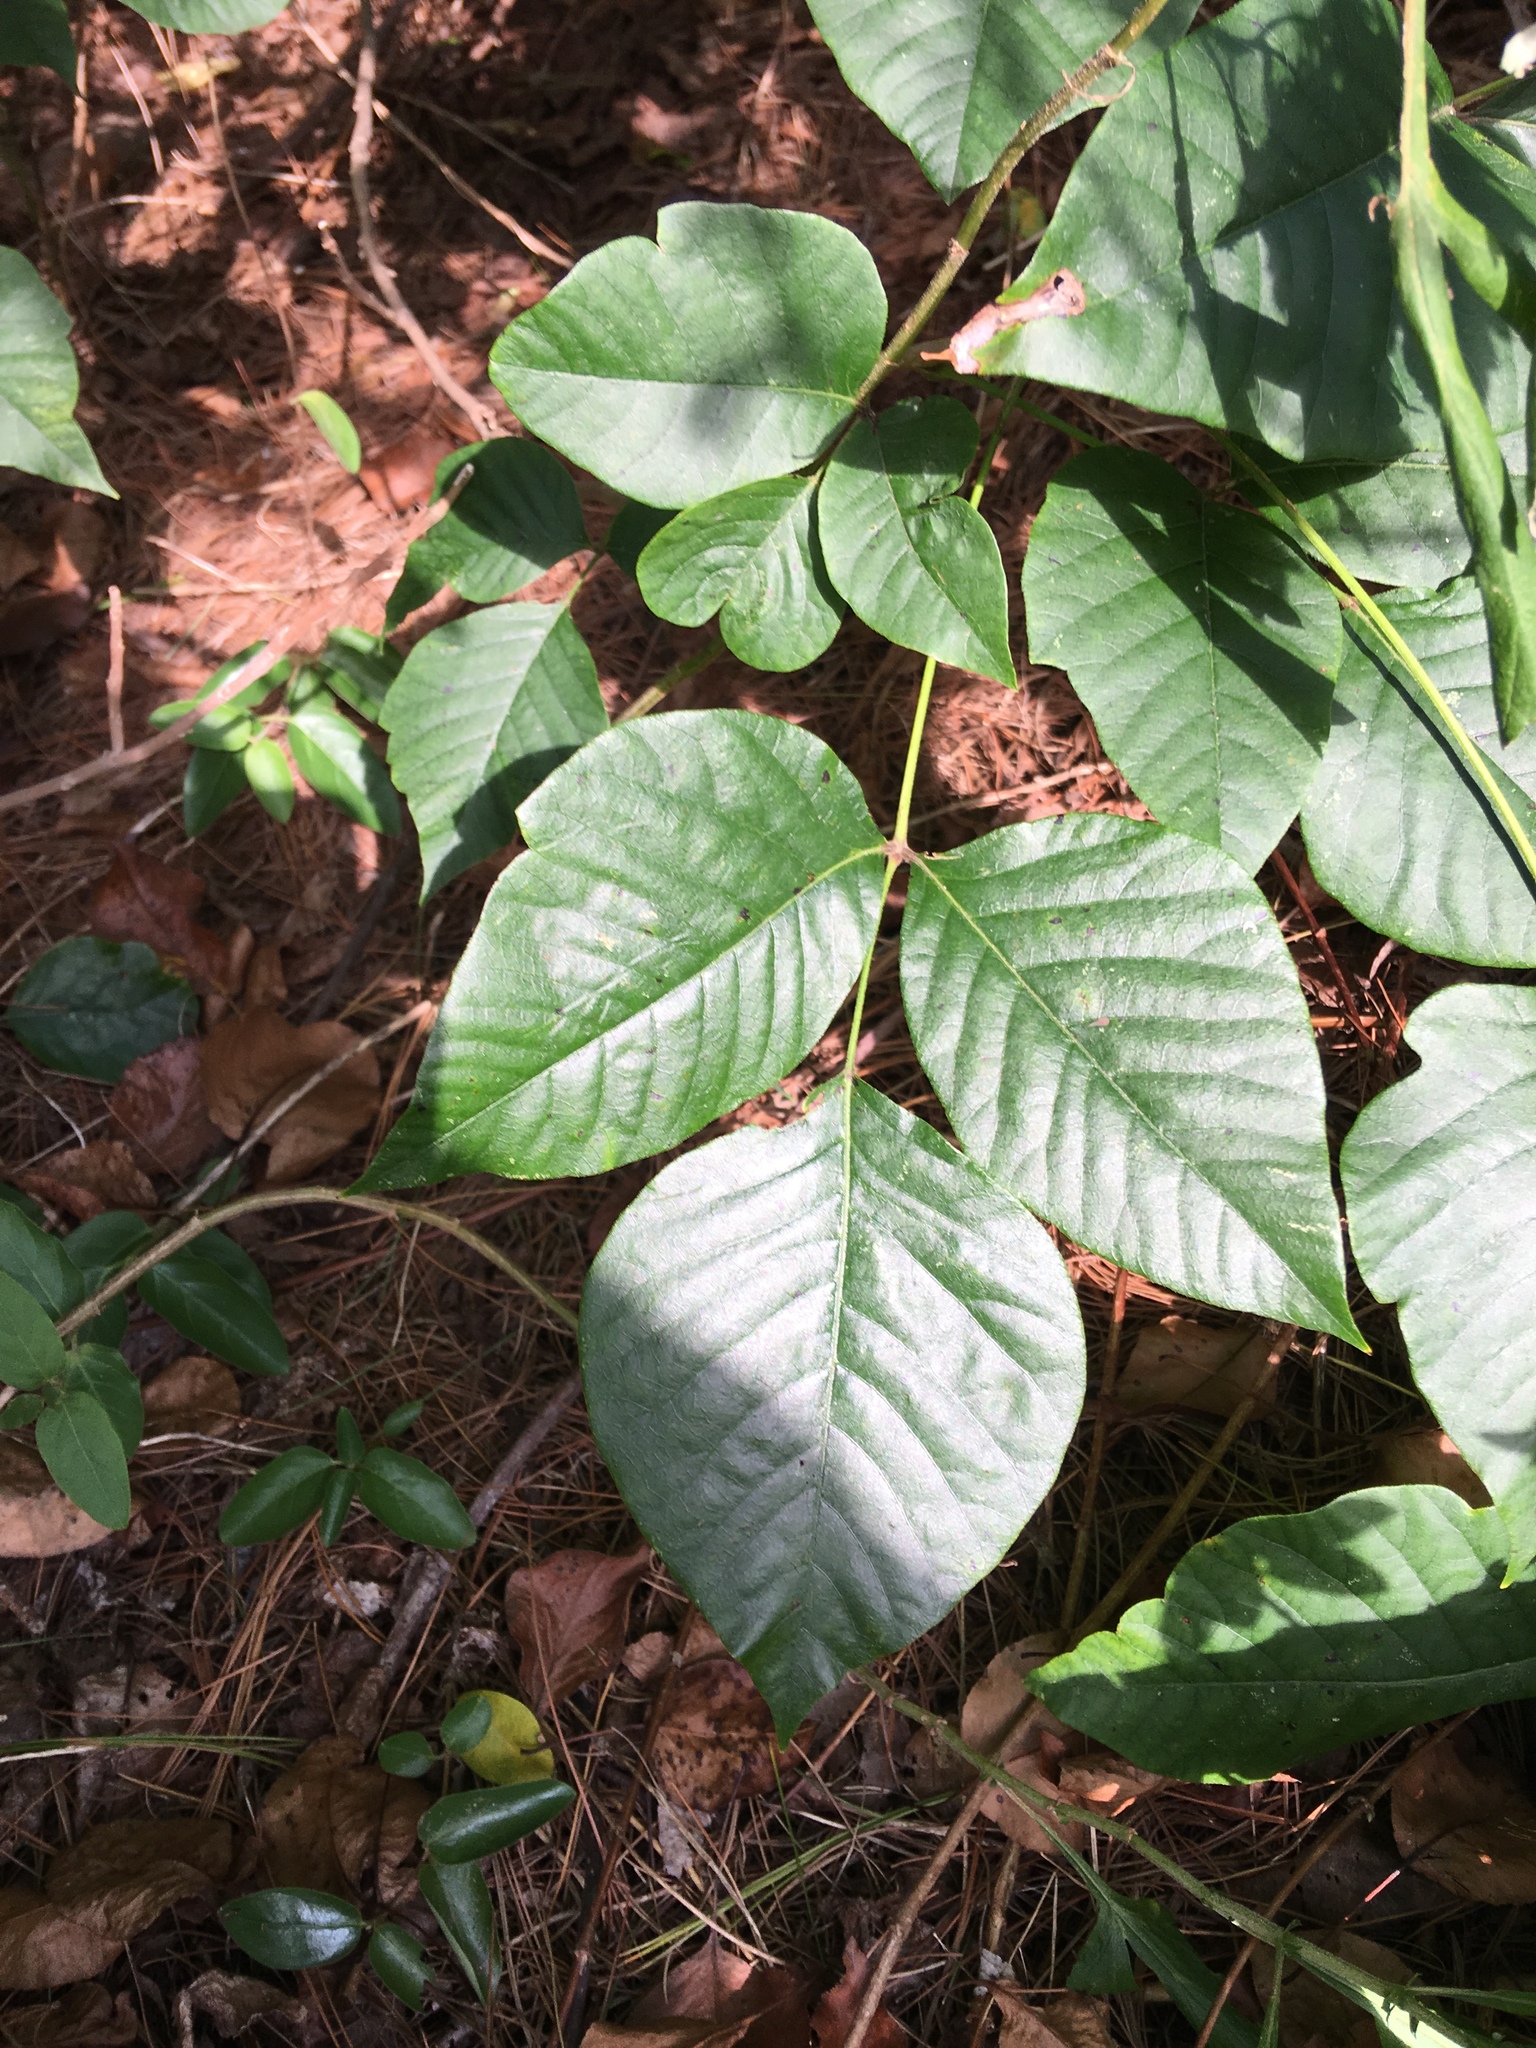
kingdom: Plantae
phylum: Tracheophyta
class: Magnoliopsida
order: Sapindales
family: Anacardiaceae
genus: Toxicodendron
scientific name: Toxicodendron radicans
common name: Poison ivy
